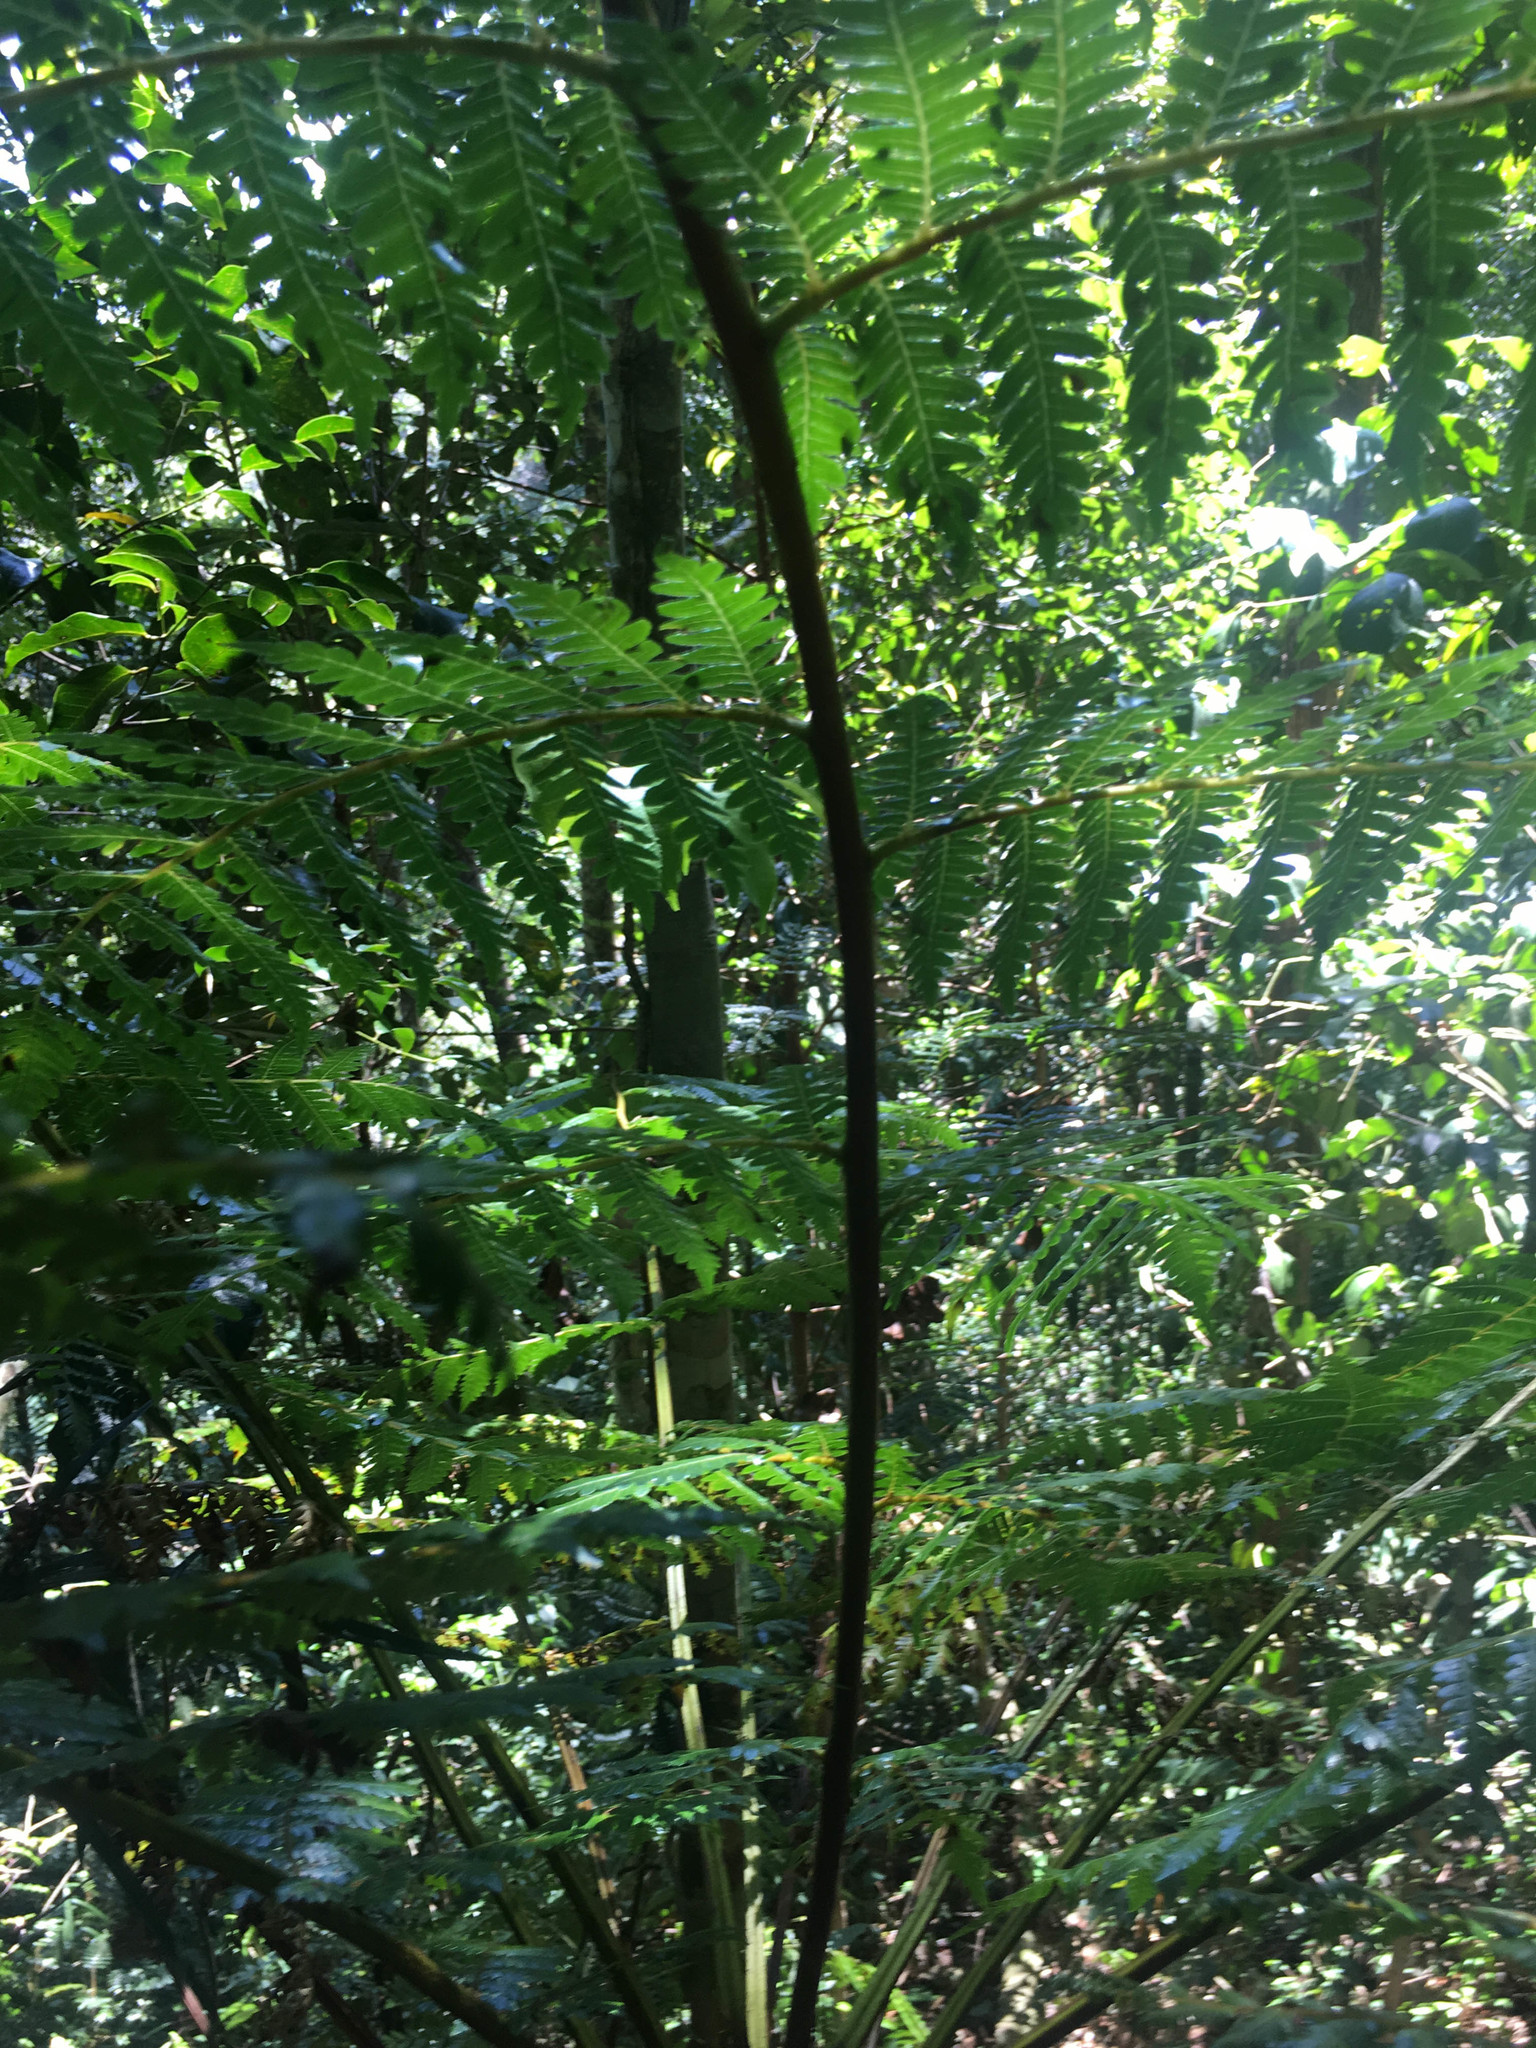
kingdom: Plantae
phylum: Tracheophyta
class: Polypodiopsida
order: Cyatheales
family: Cyatheaceae
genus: Alsophila
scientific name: Alsophila vieillardii
